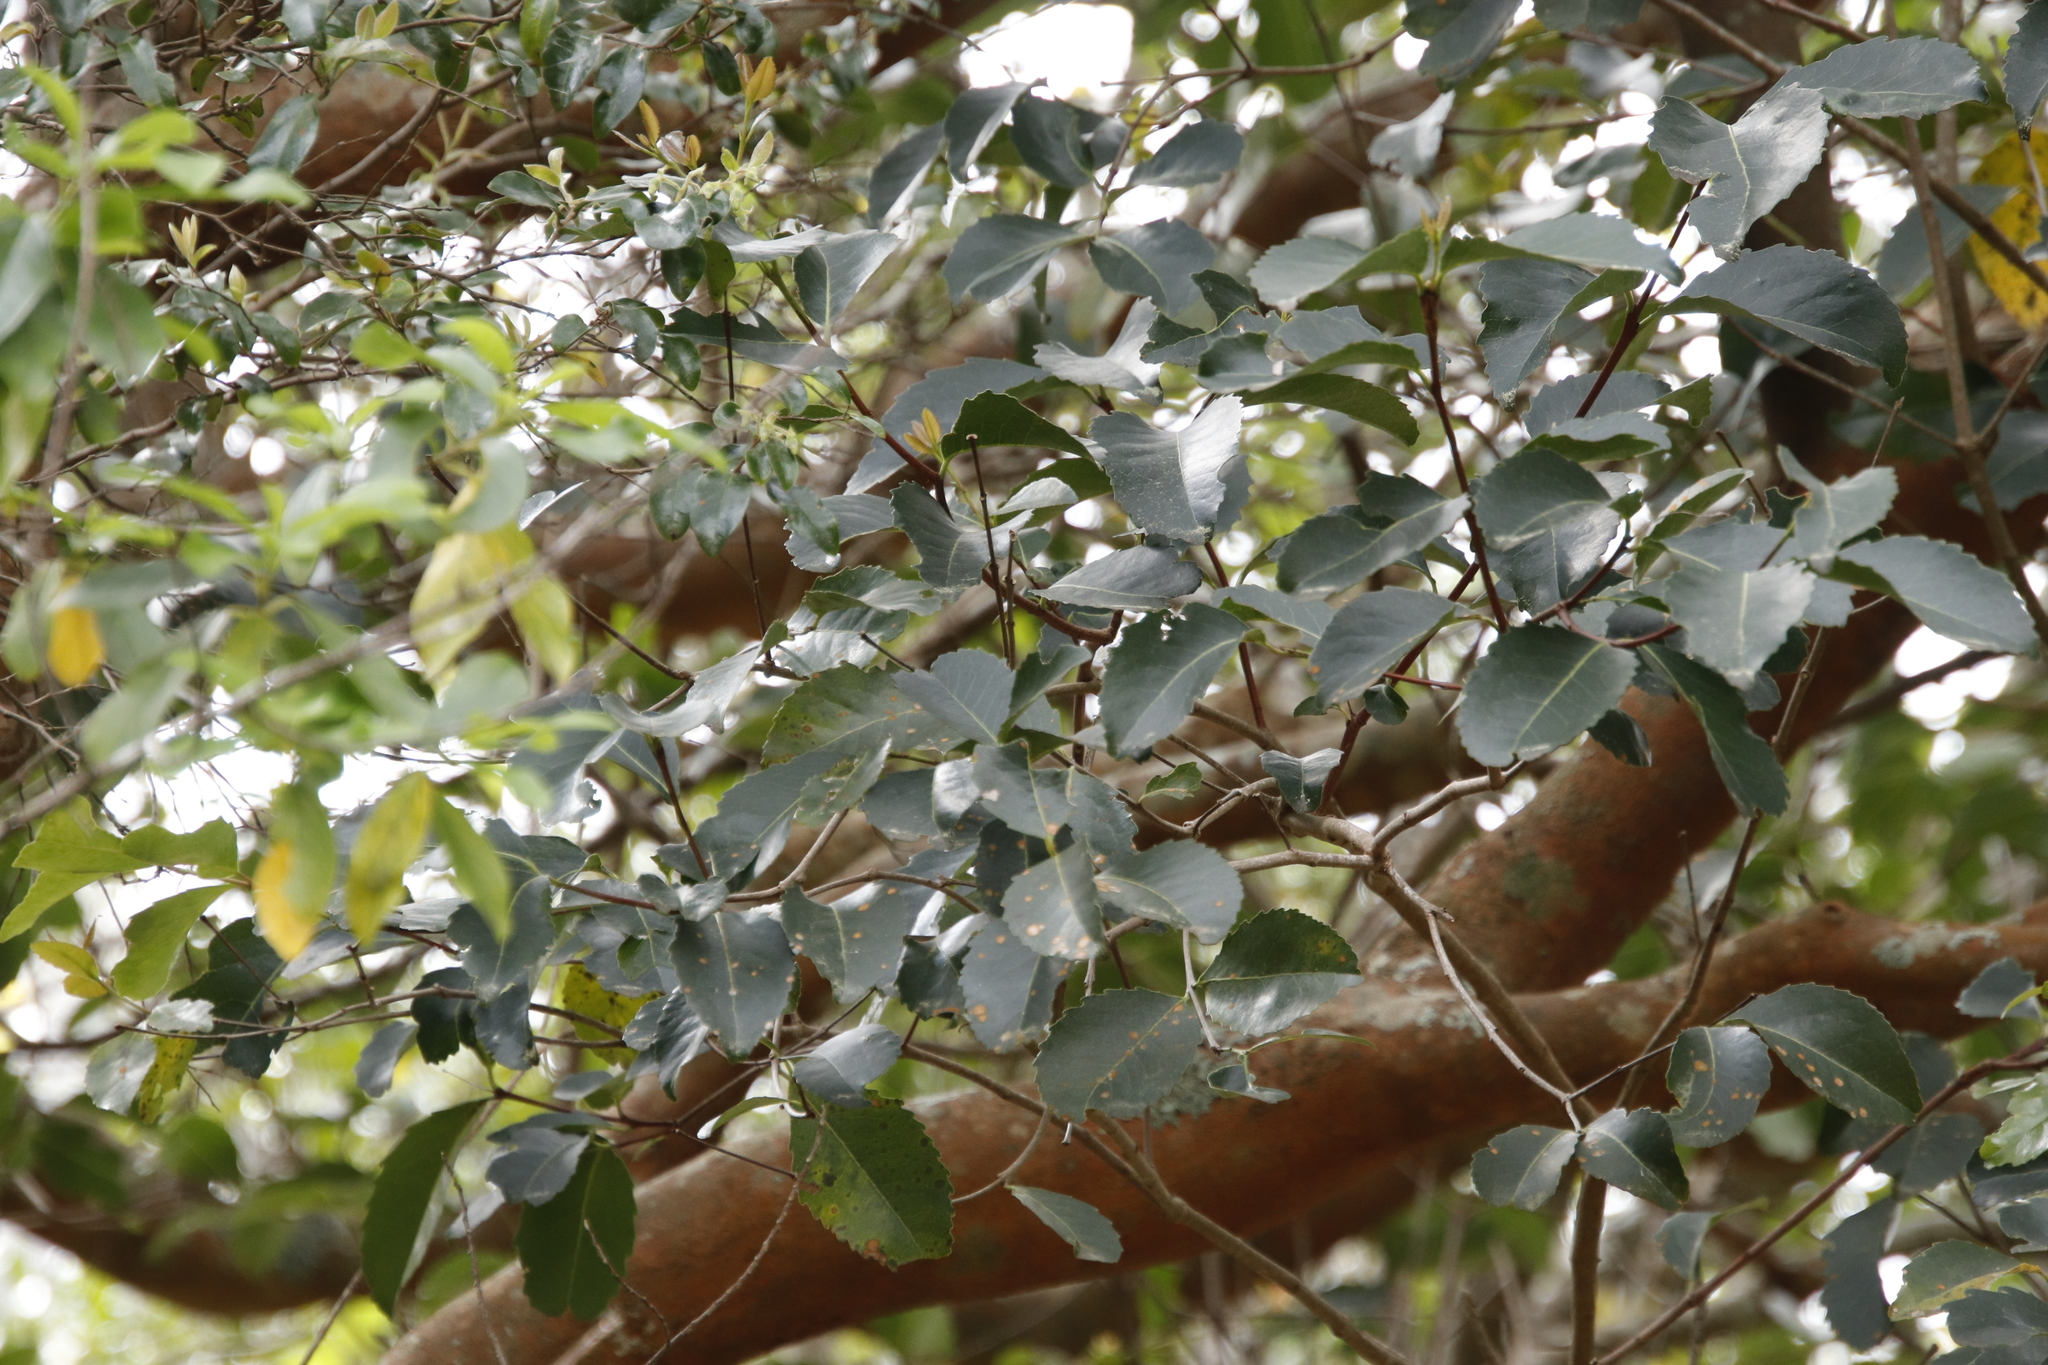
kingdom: Plantae
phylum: Tracheophyta
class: Magnoliopsida
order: Celastrales
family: Celastraceae
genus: Cassine
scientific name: Cassine peragua
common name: Cape saffron
